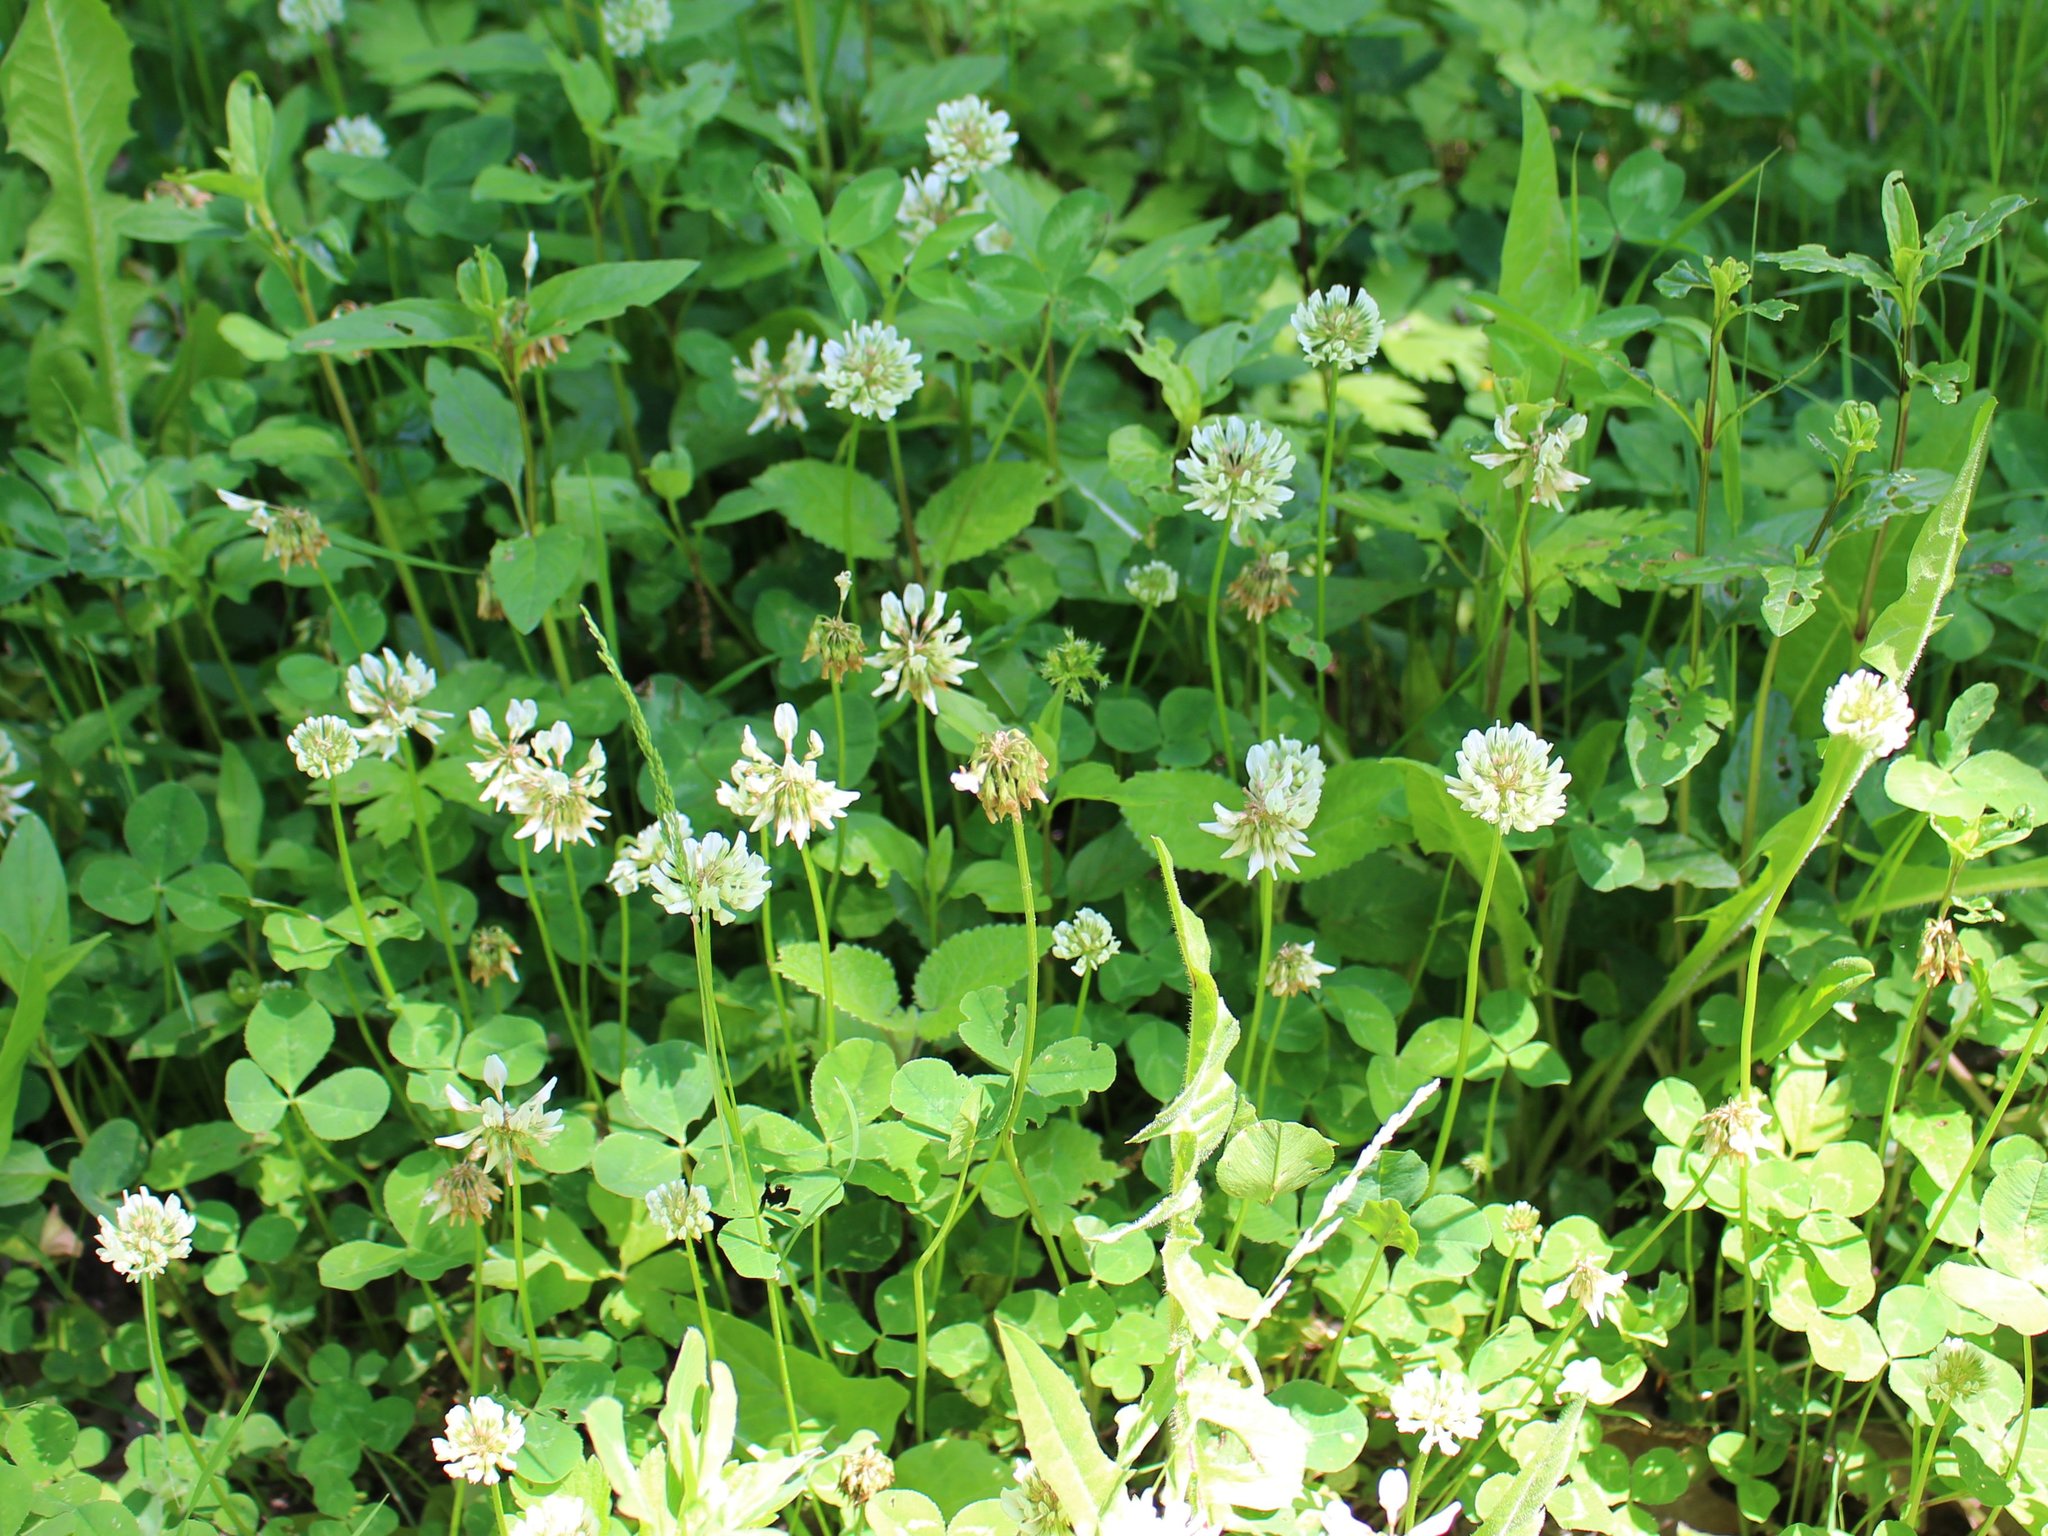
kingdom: Plantae
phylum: Tracheophyta
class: Magnoliopsida
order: Fabales
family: Fabaceae
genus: Trifolium
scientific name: Trifolium repens
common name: White clover
